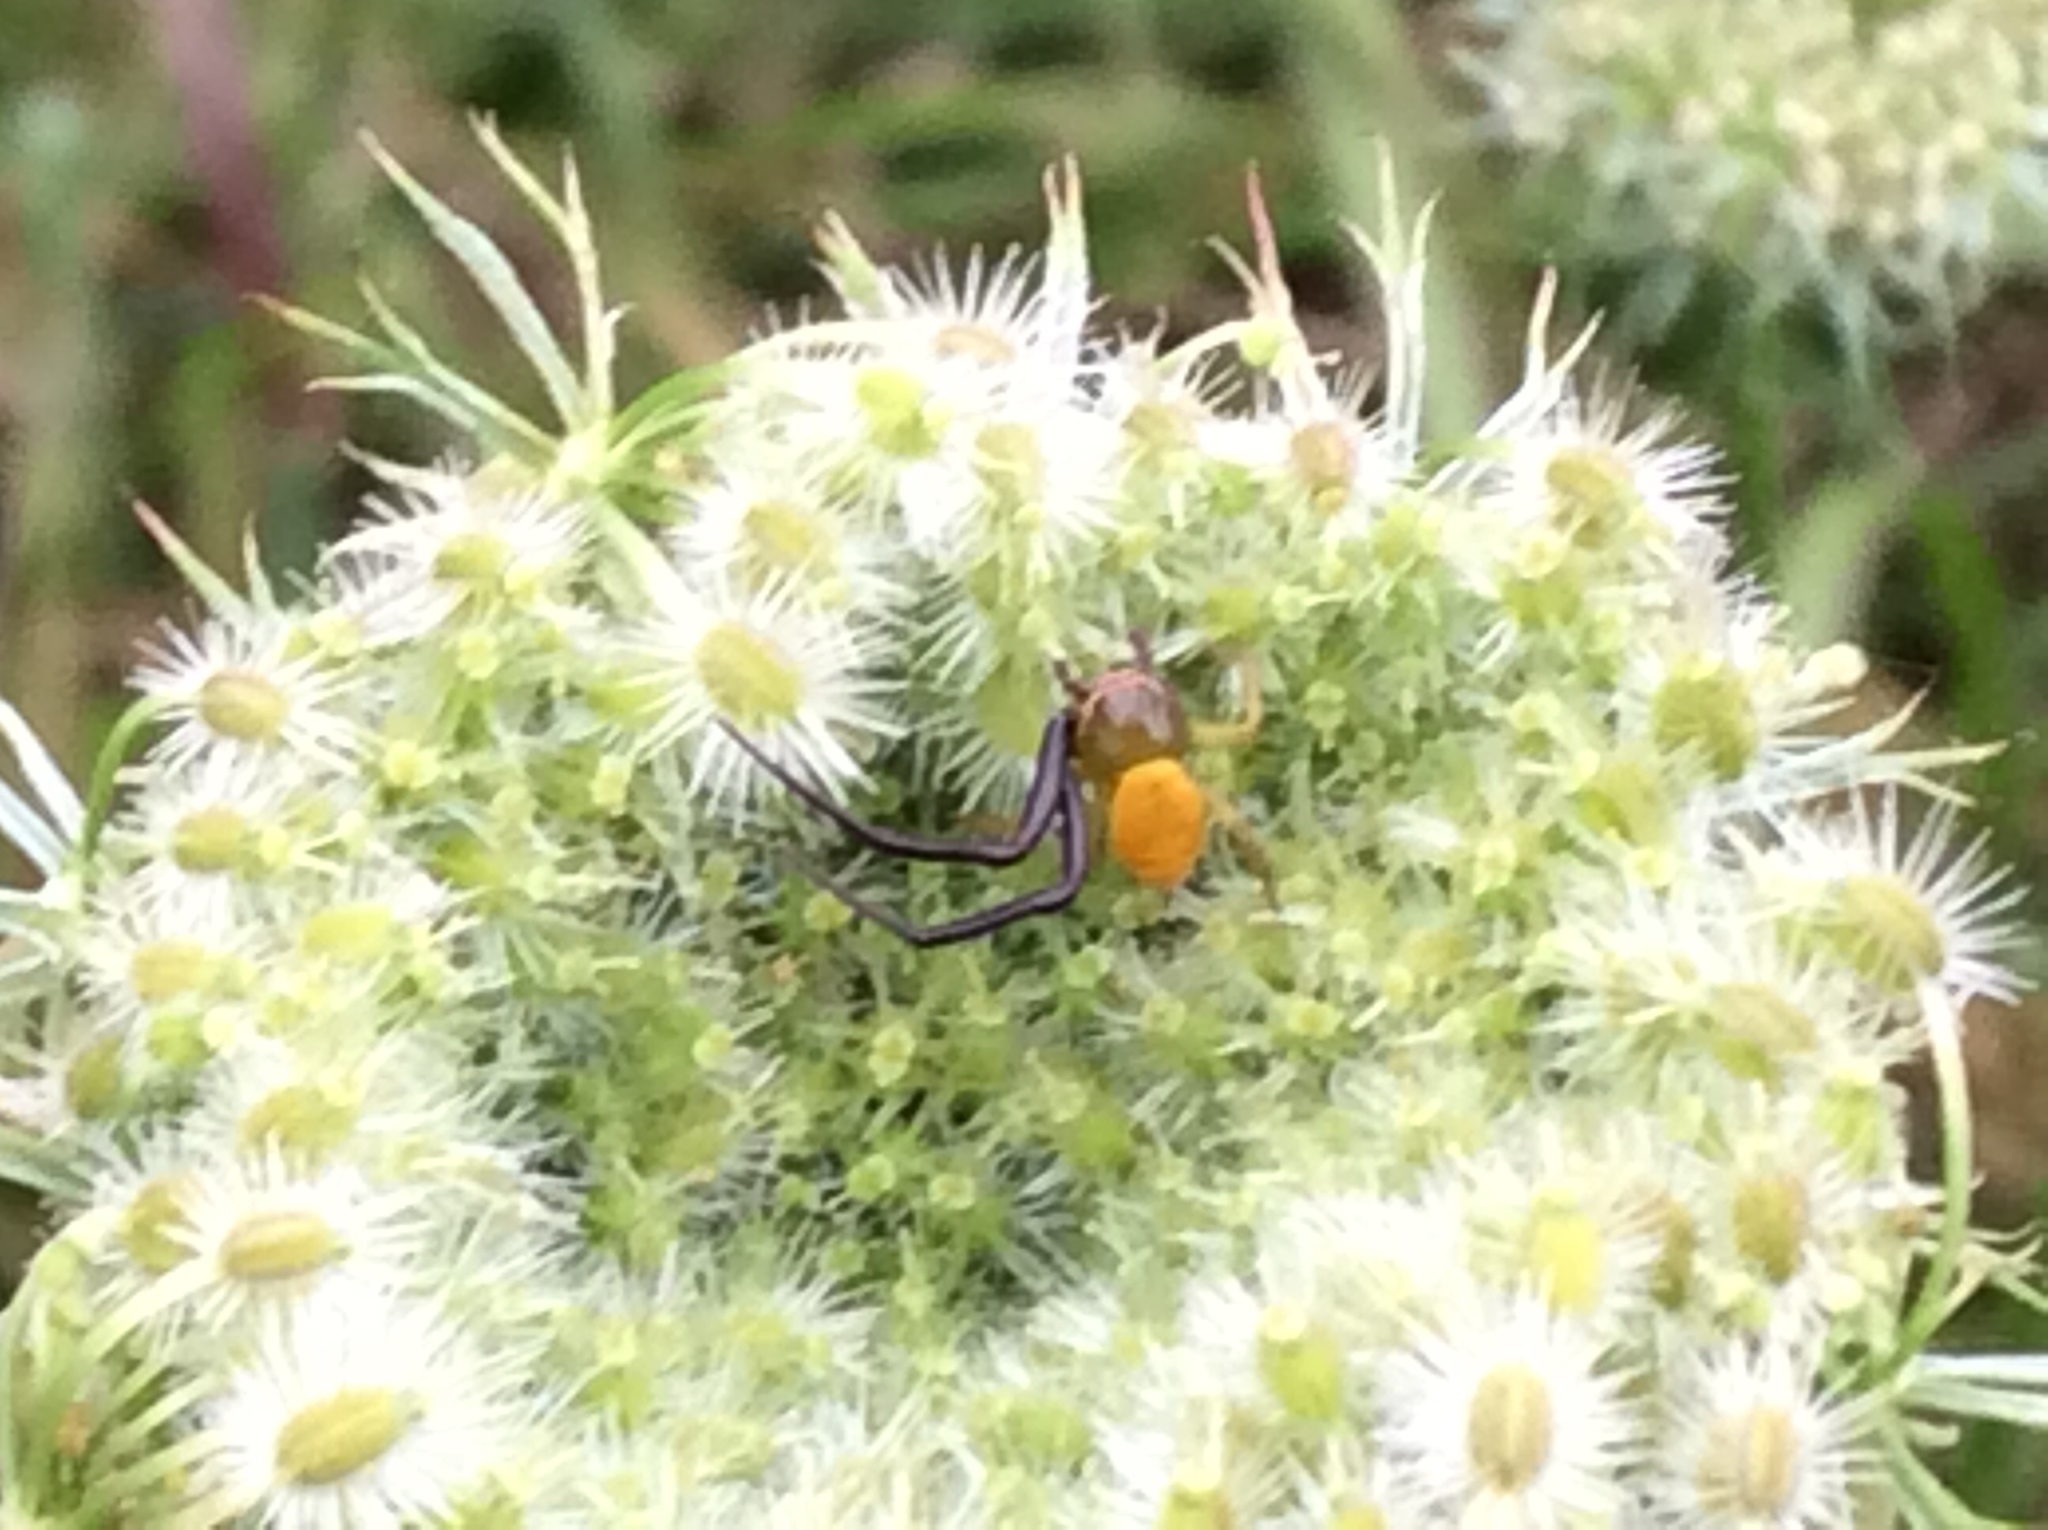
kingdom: Animalia
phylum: Arthropoda
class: Arachnida
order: Araneae
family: Thomisidae
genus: Misumenoides
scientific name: Misumenoides formosipes
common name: White-banded crab spider
